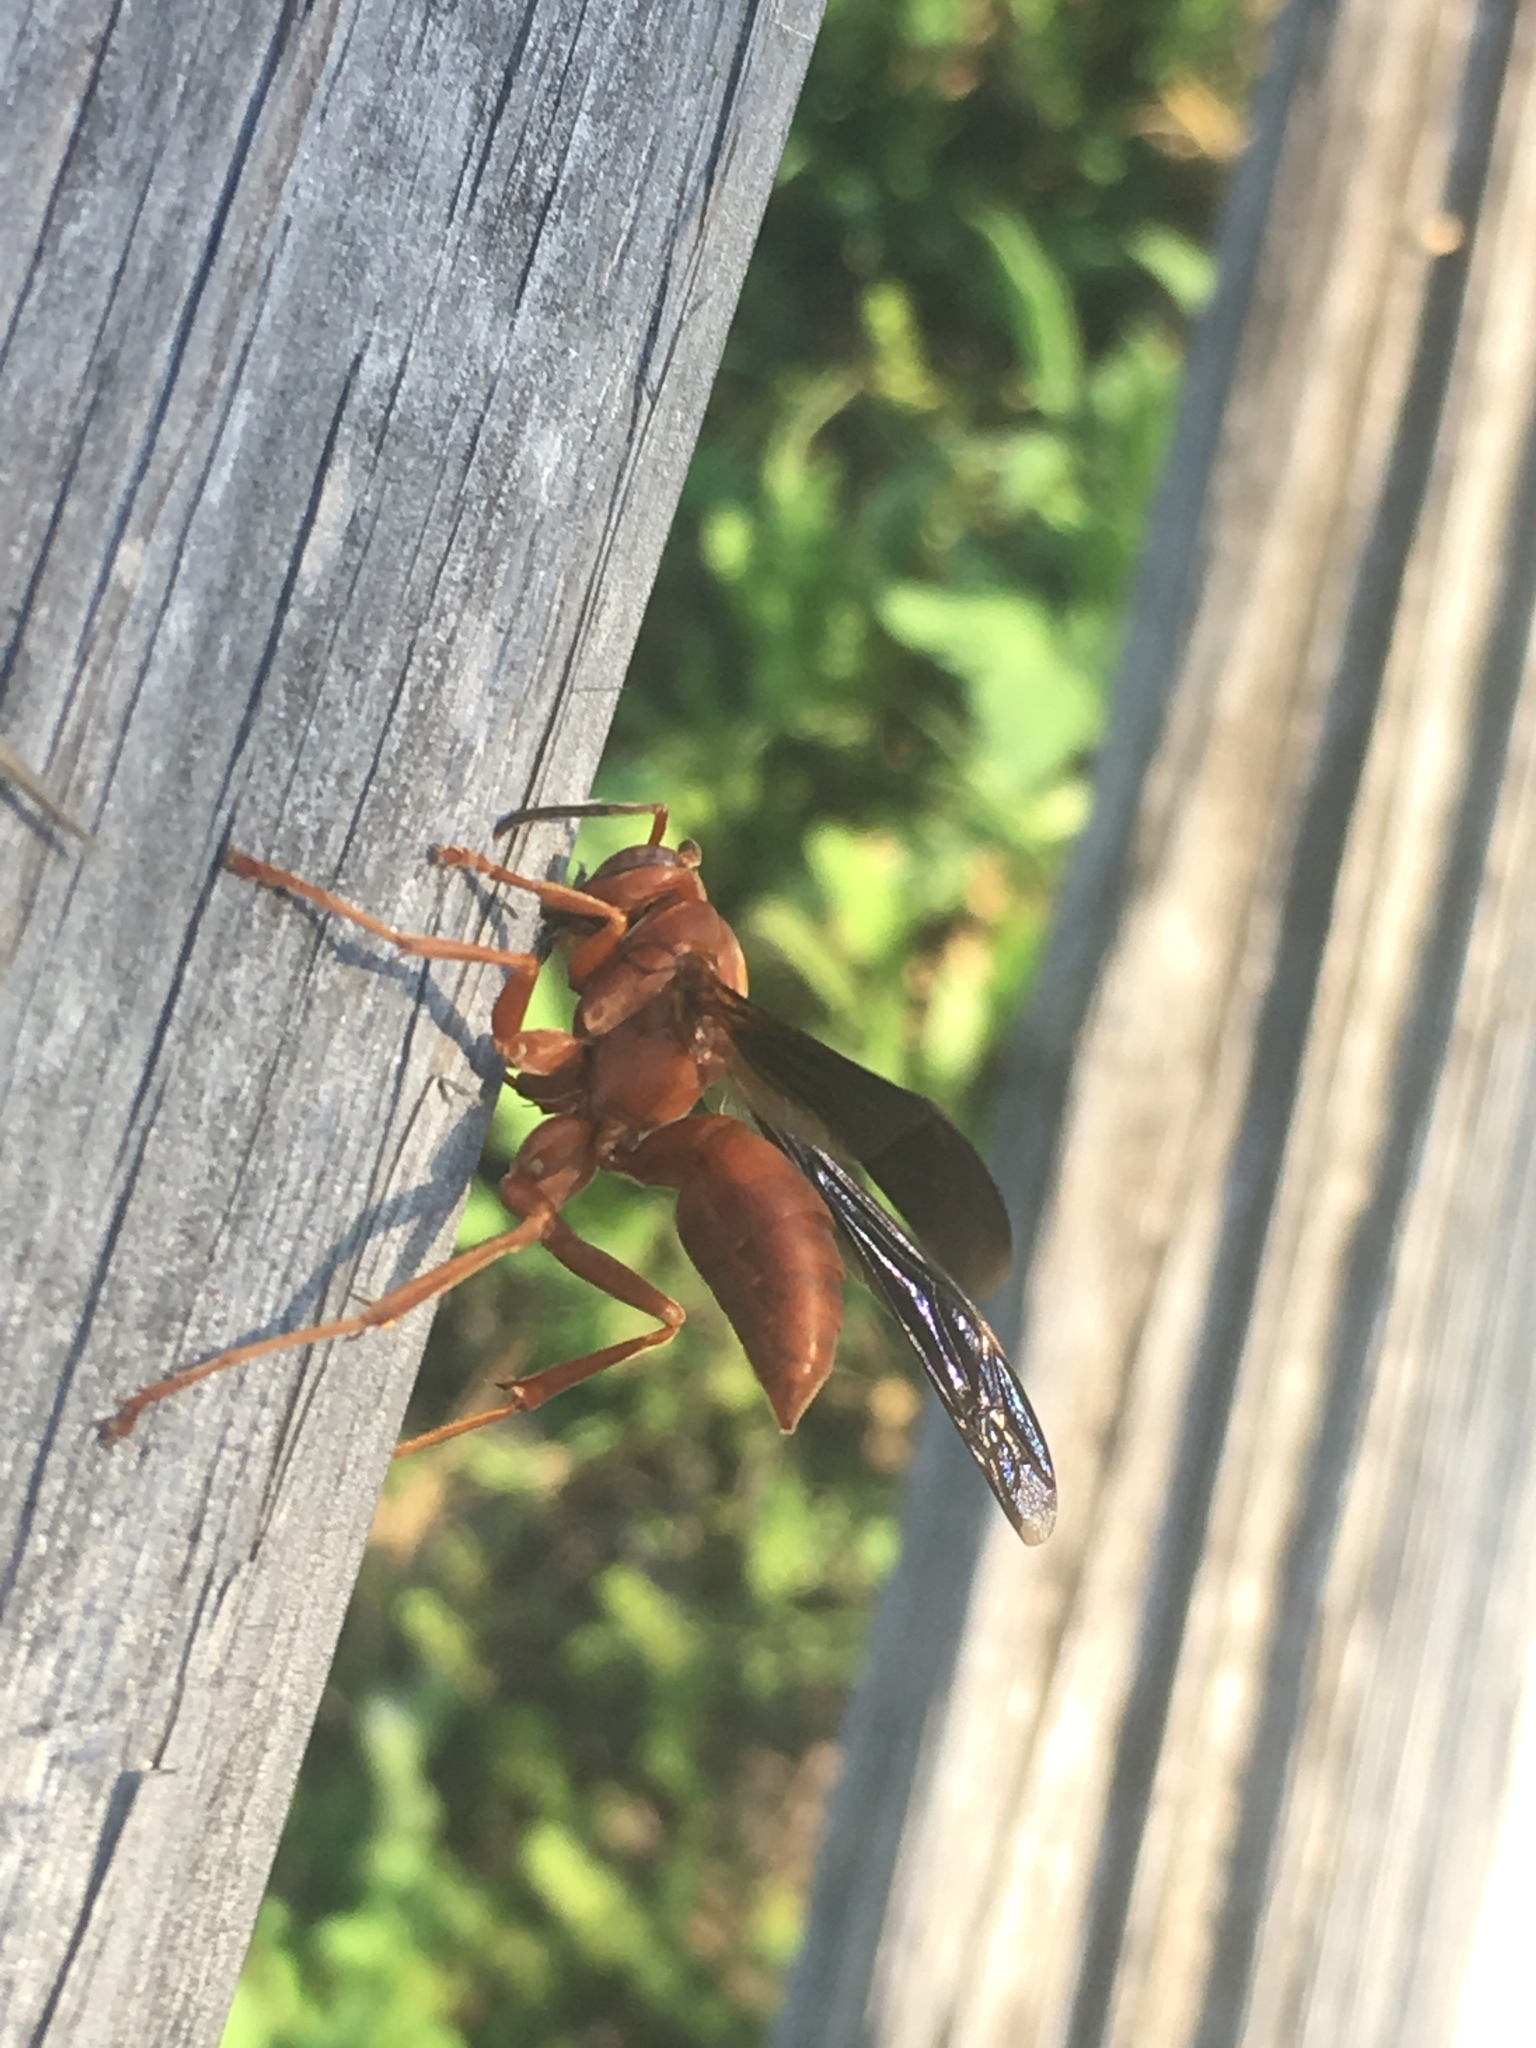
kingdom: Animalia
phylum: Arthropoda
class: Insecta
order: Hymenoptera
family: Vespidae
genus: Fuscopolistes
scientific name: Fuscopolistes
